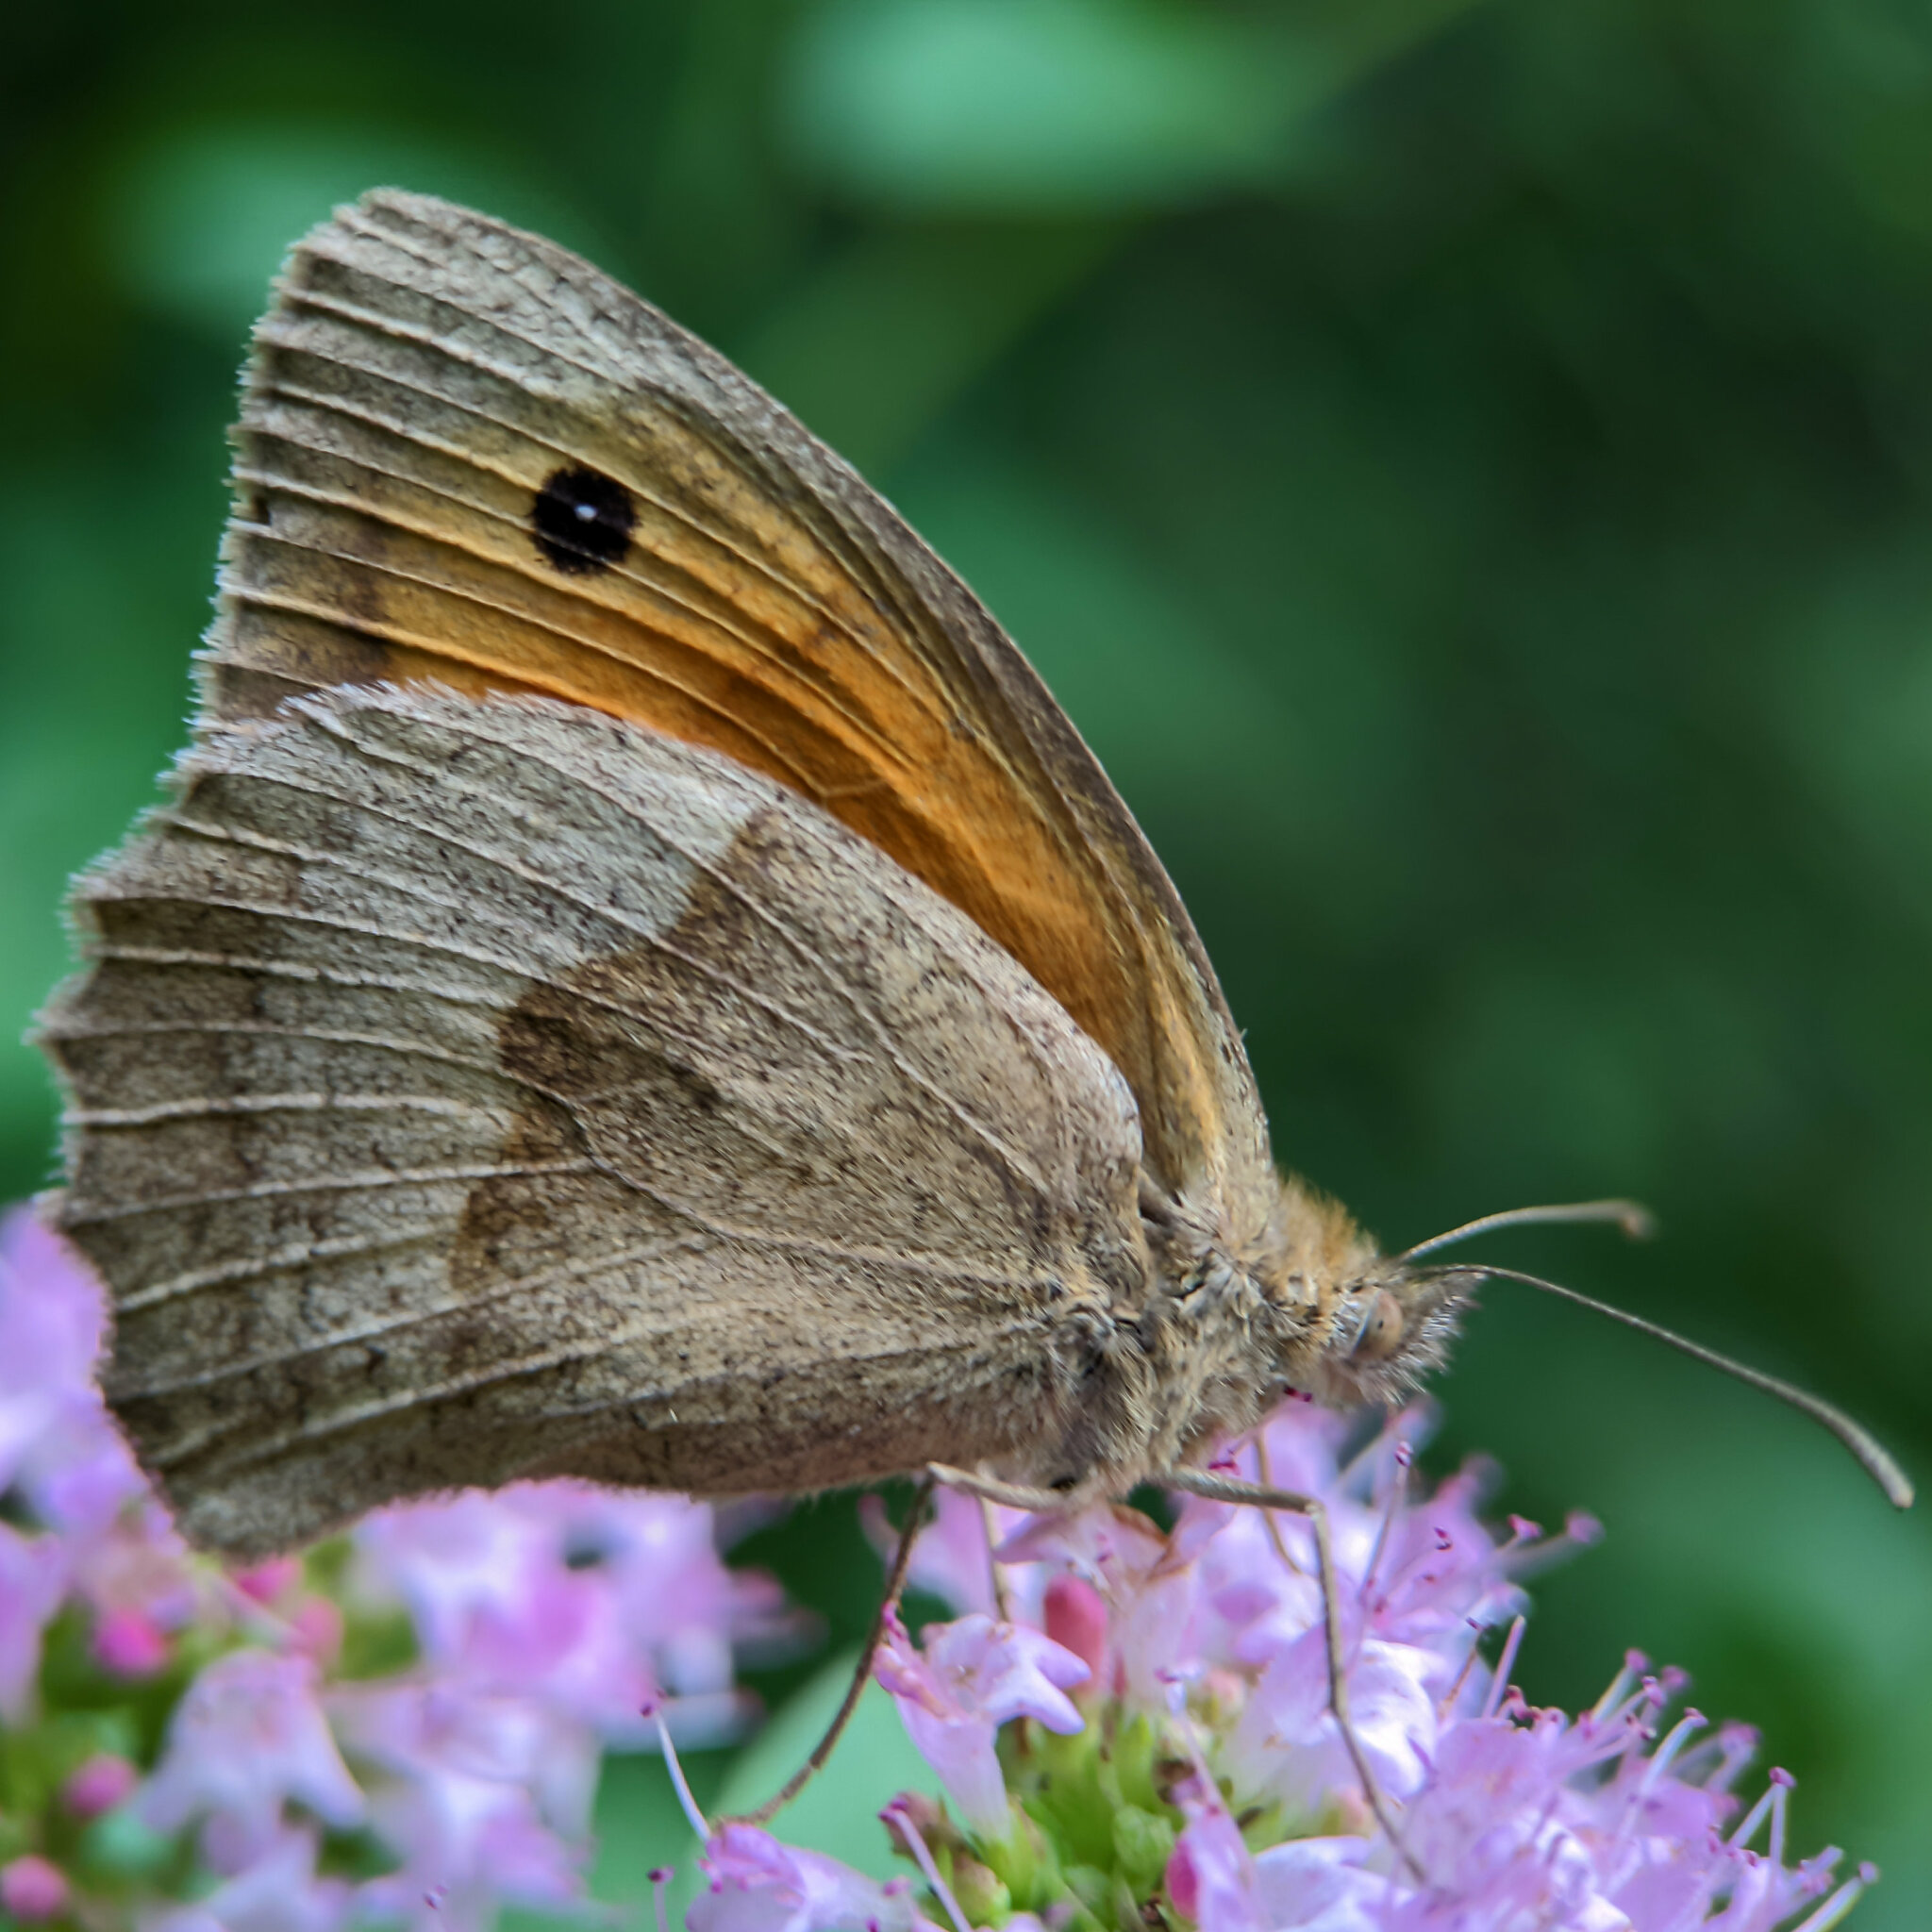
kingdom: Animalia
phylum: Arthropoda
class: Insecta
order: Lepidoptera
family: Nymphalidae
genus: Maniola
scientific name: Maniola jurtina
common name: Meadow brown
